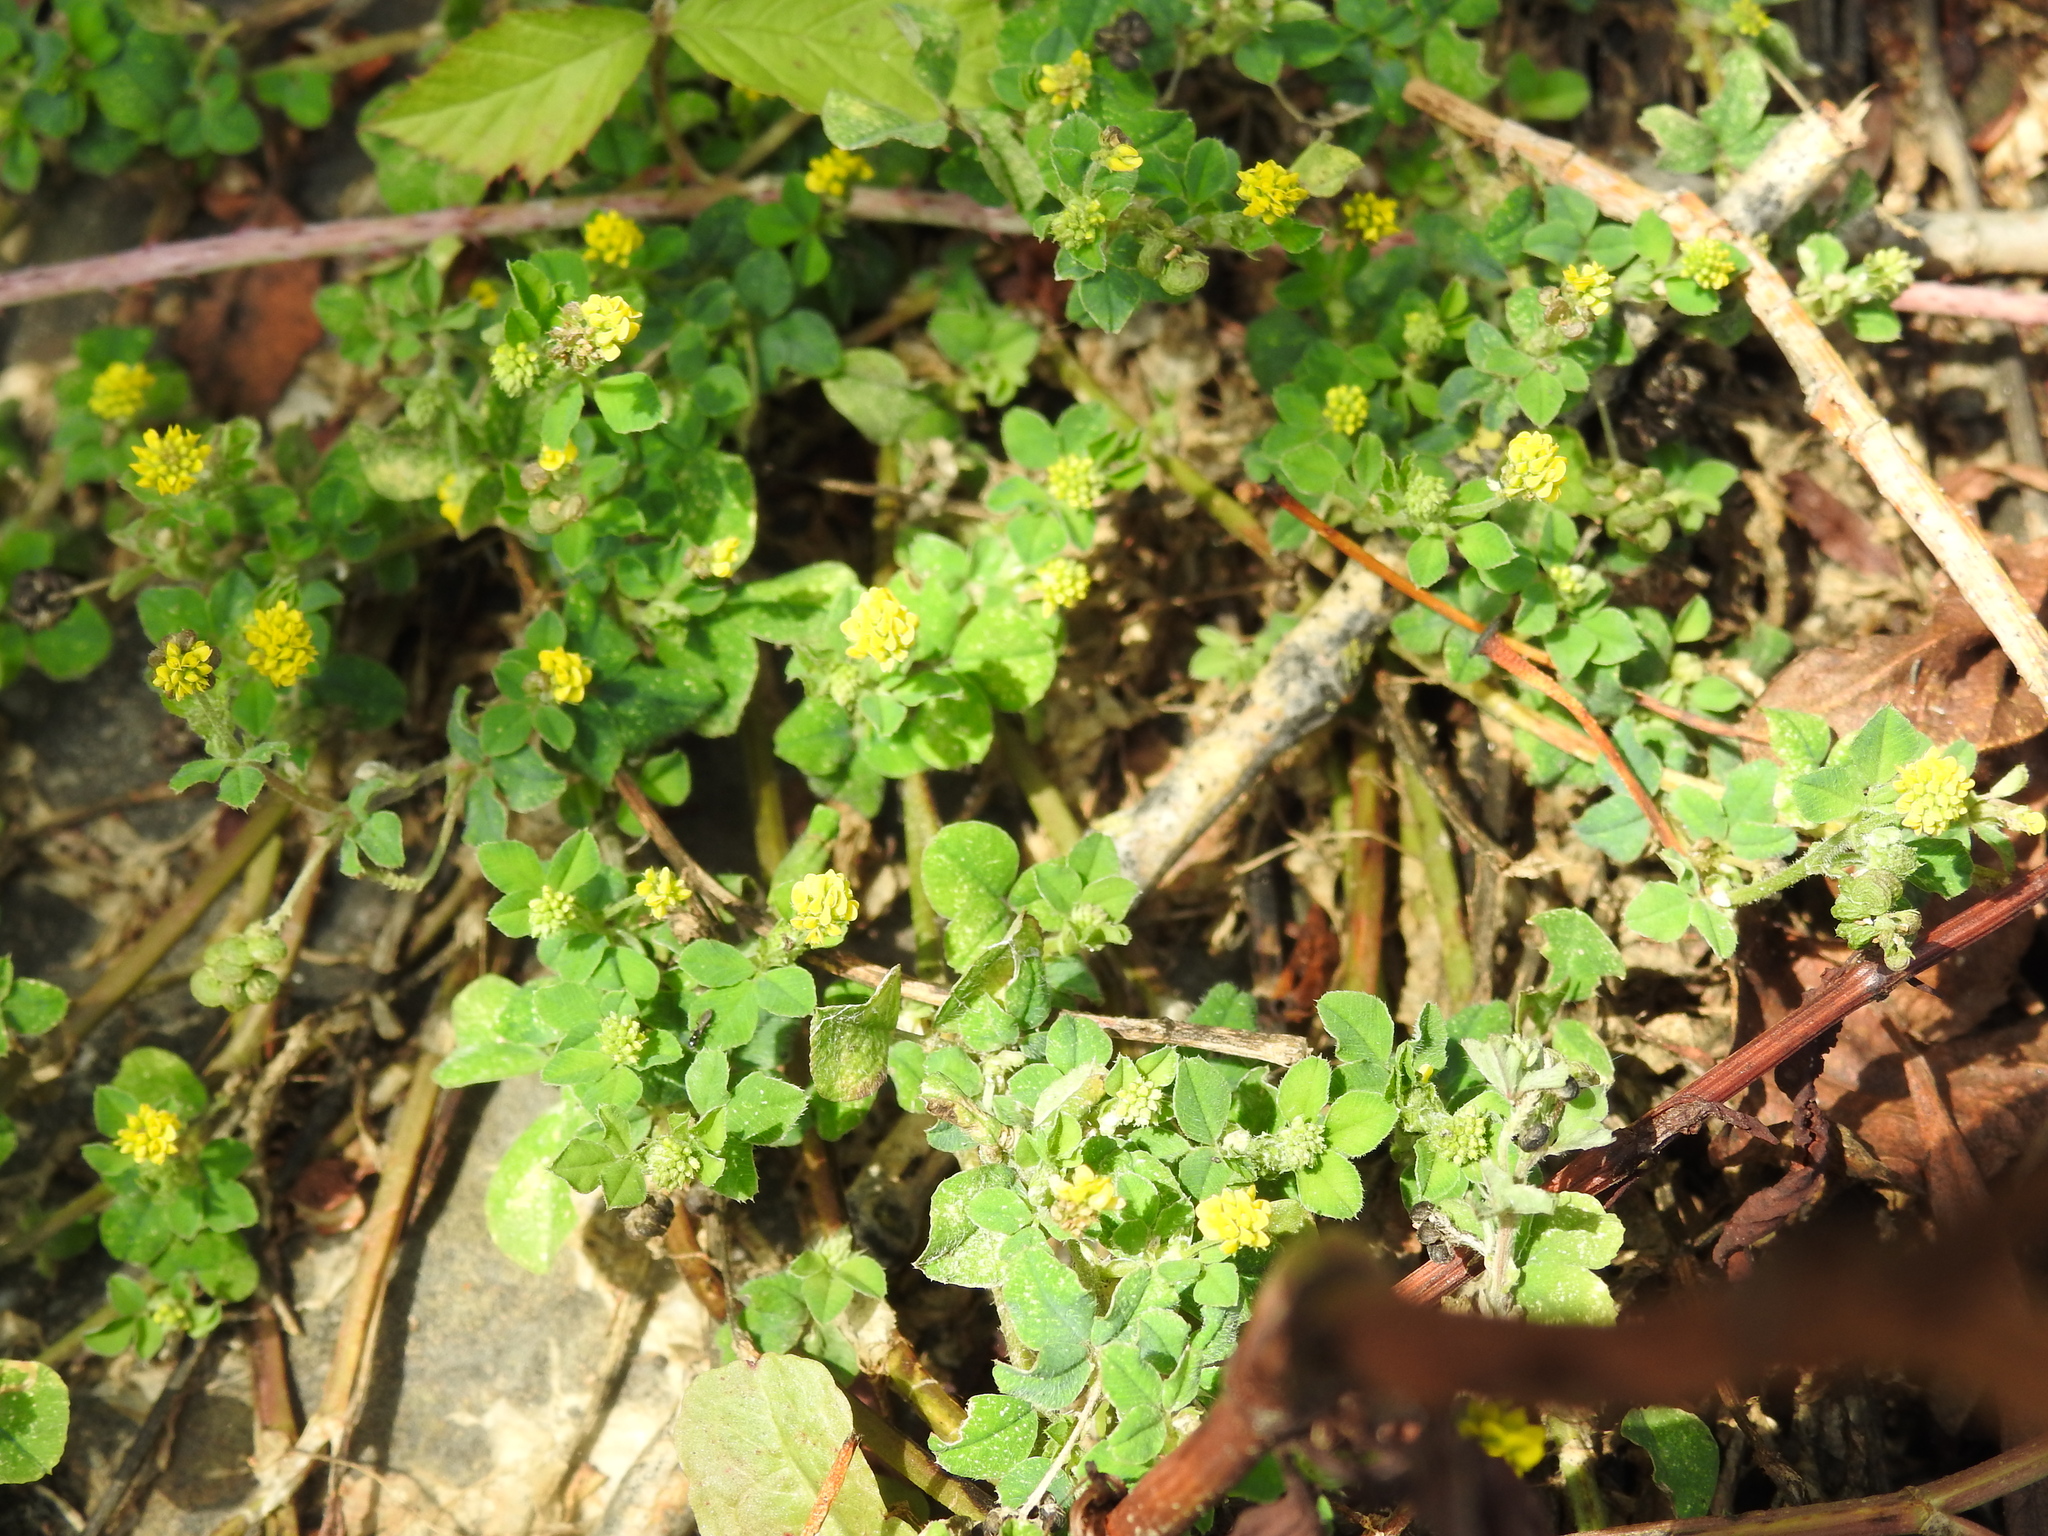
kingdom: Plantae
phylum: Tracheophyta
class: Magnoliopsida
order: Fabales
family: Fabaceae
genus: Medicago
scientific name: Medicago lupulina
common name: Black medick
